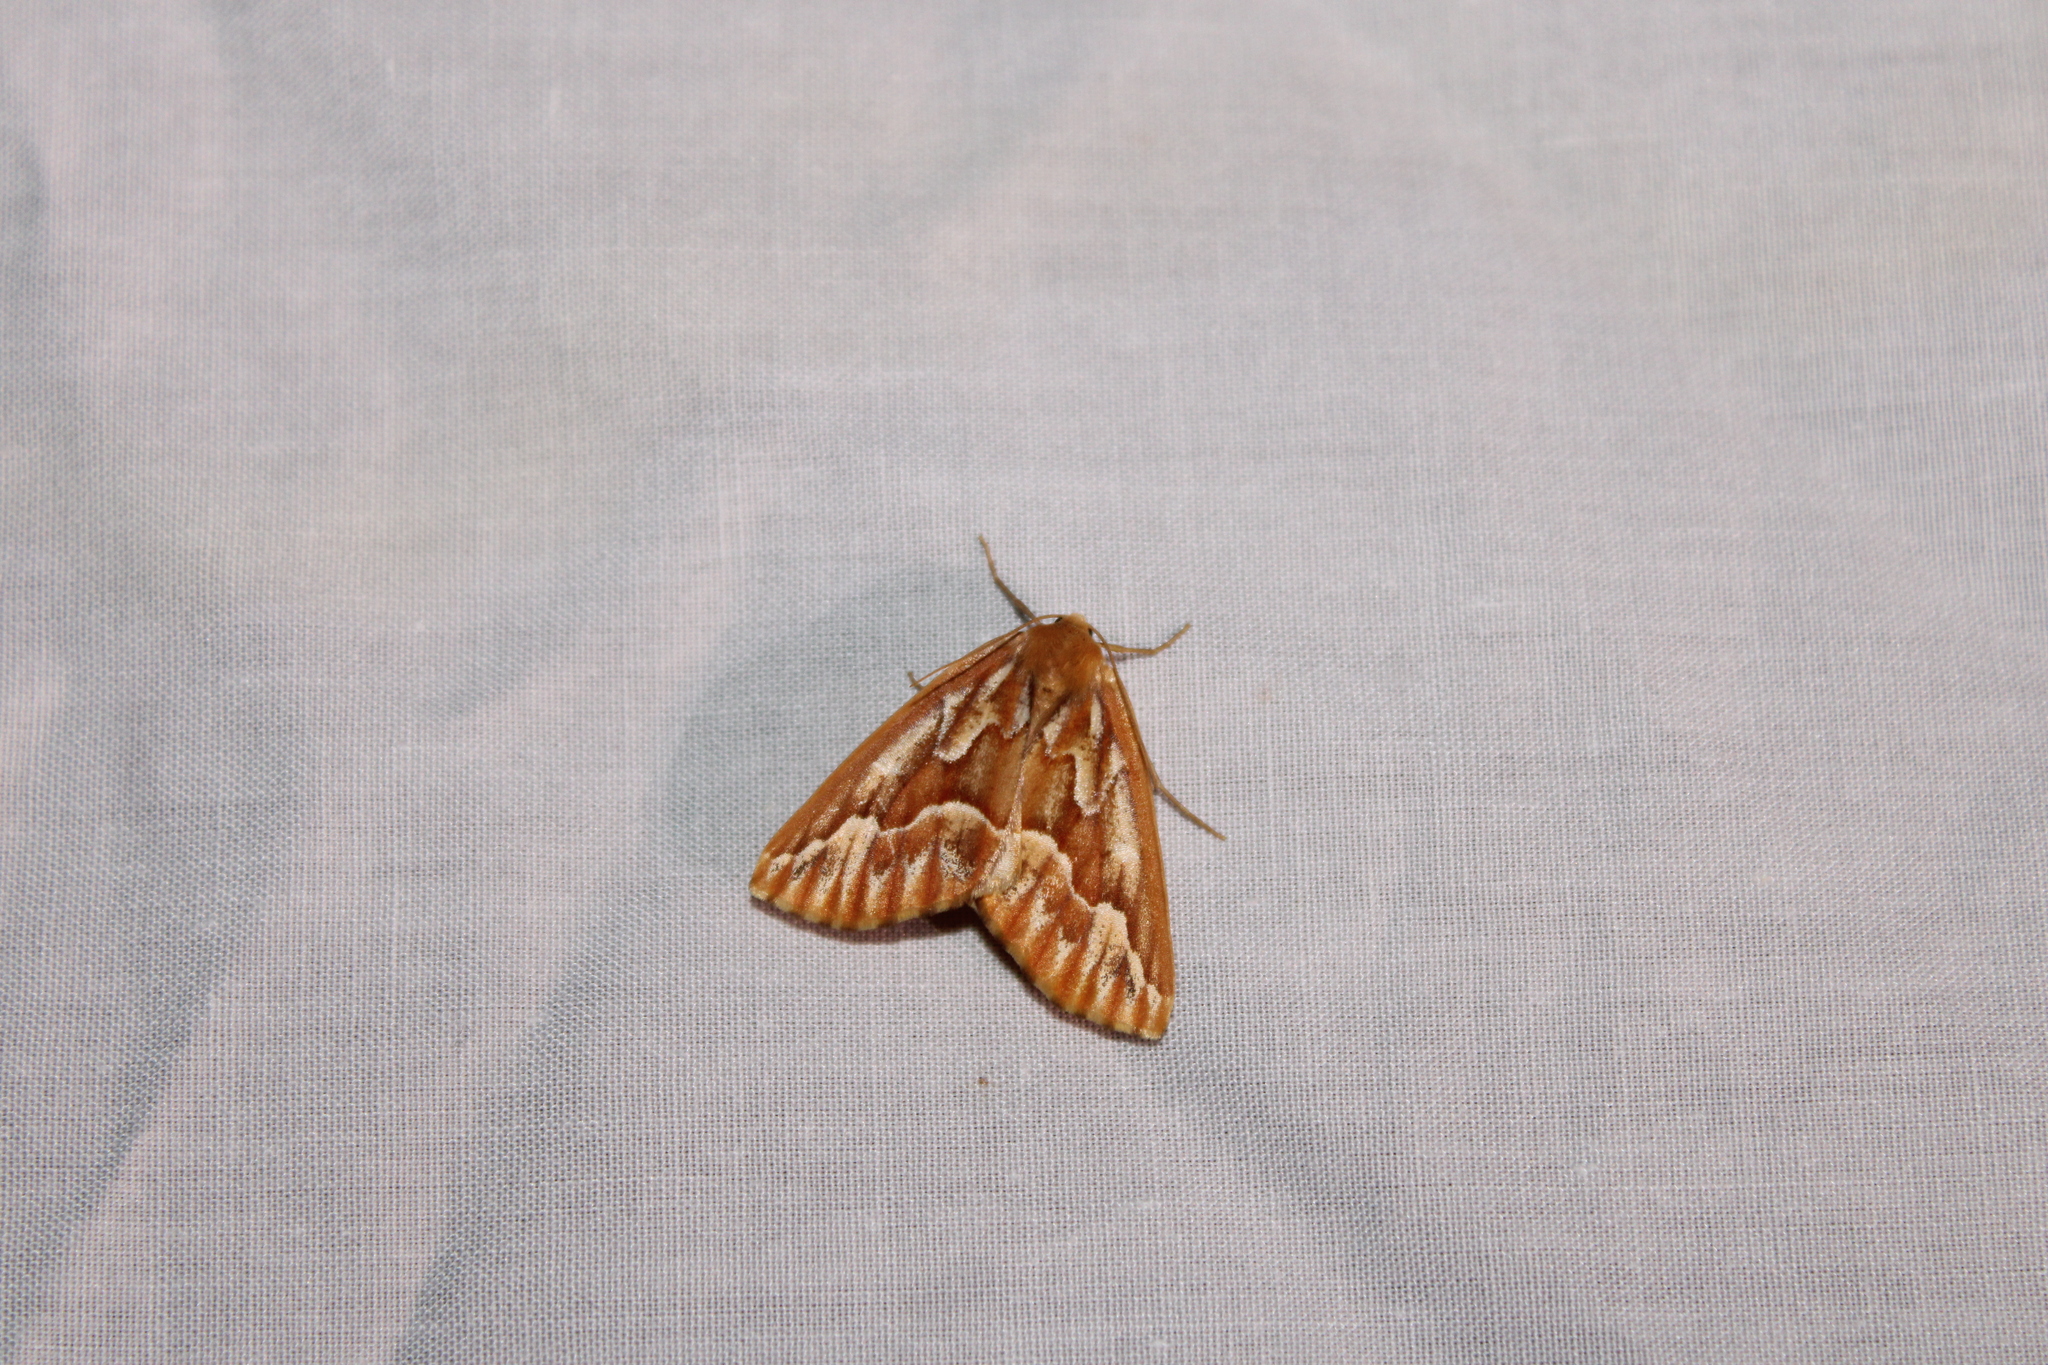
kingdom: Animalia
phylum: Arthropoda
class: Insecta
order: Lepidoptera
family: Geometridae
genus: Caripeta
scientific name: Caripeta piniata
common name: Northern pine looper moth
